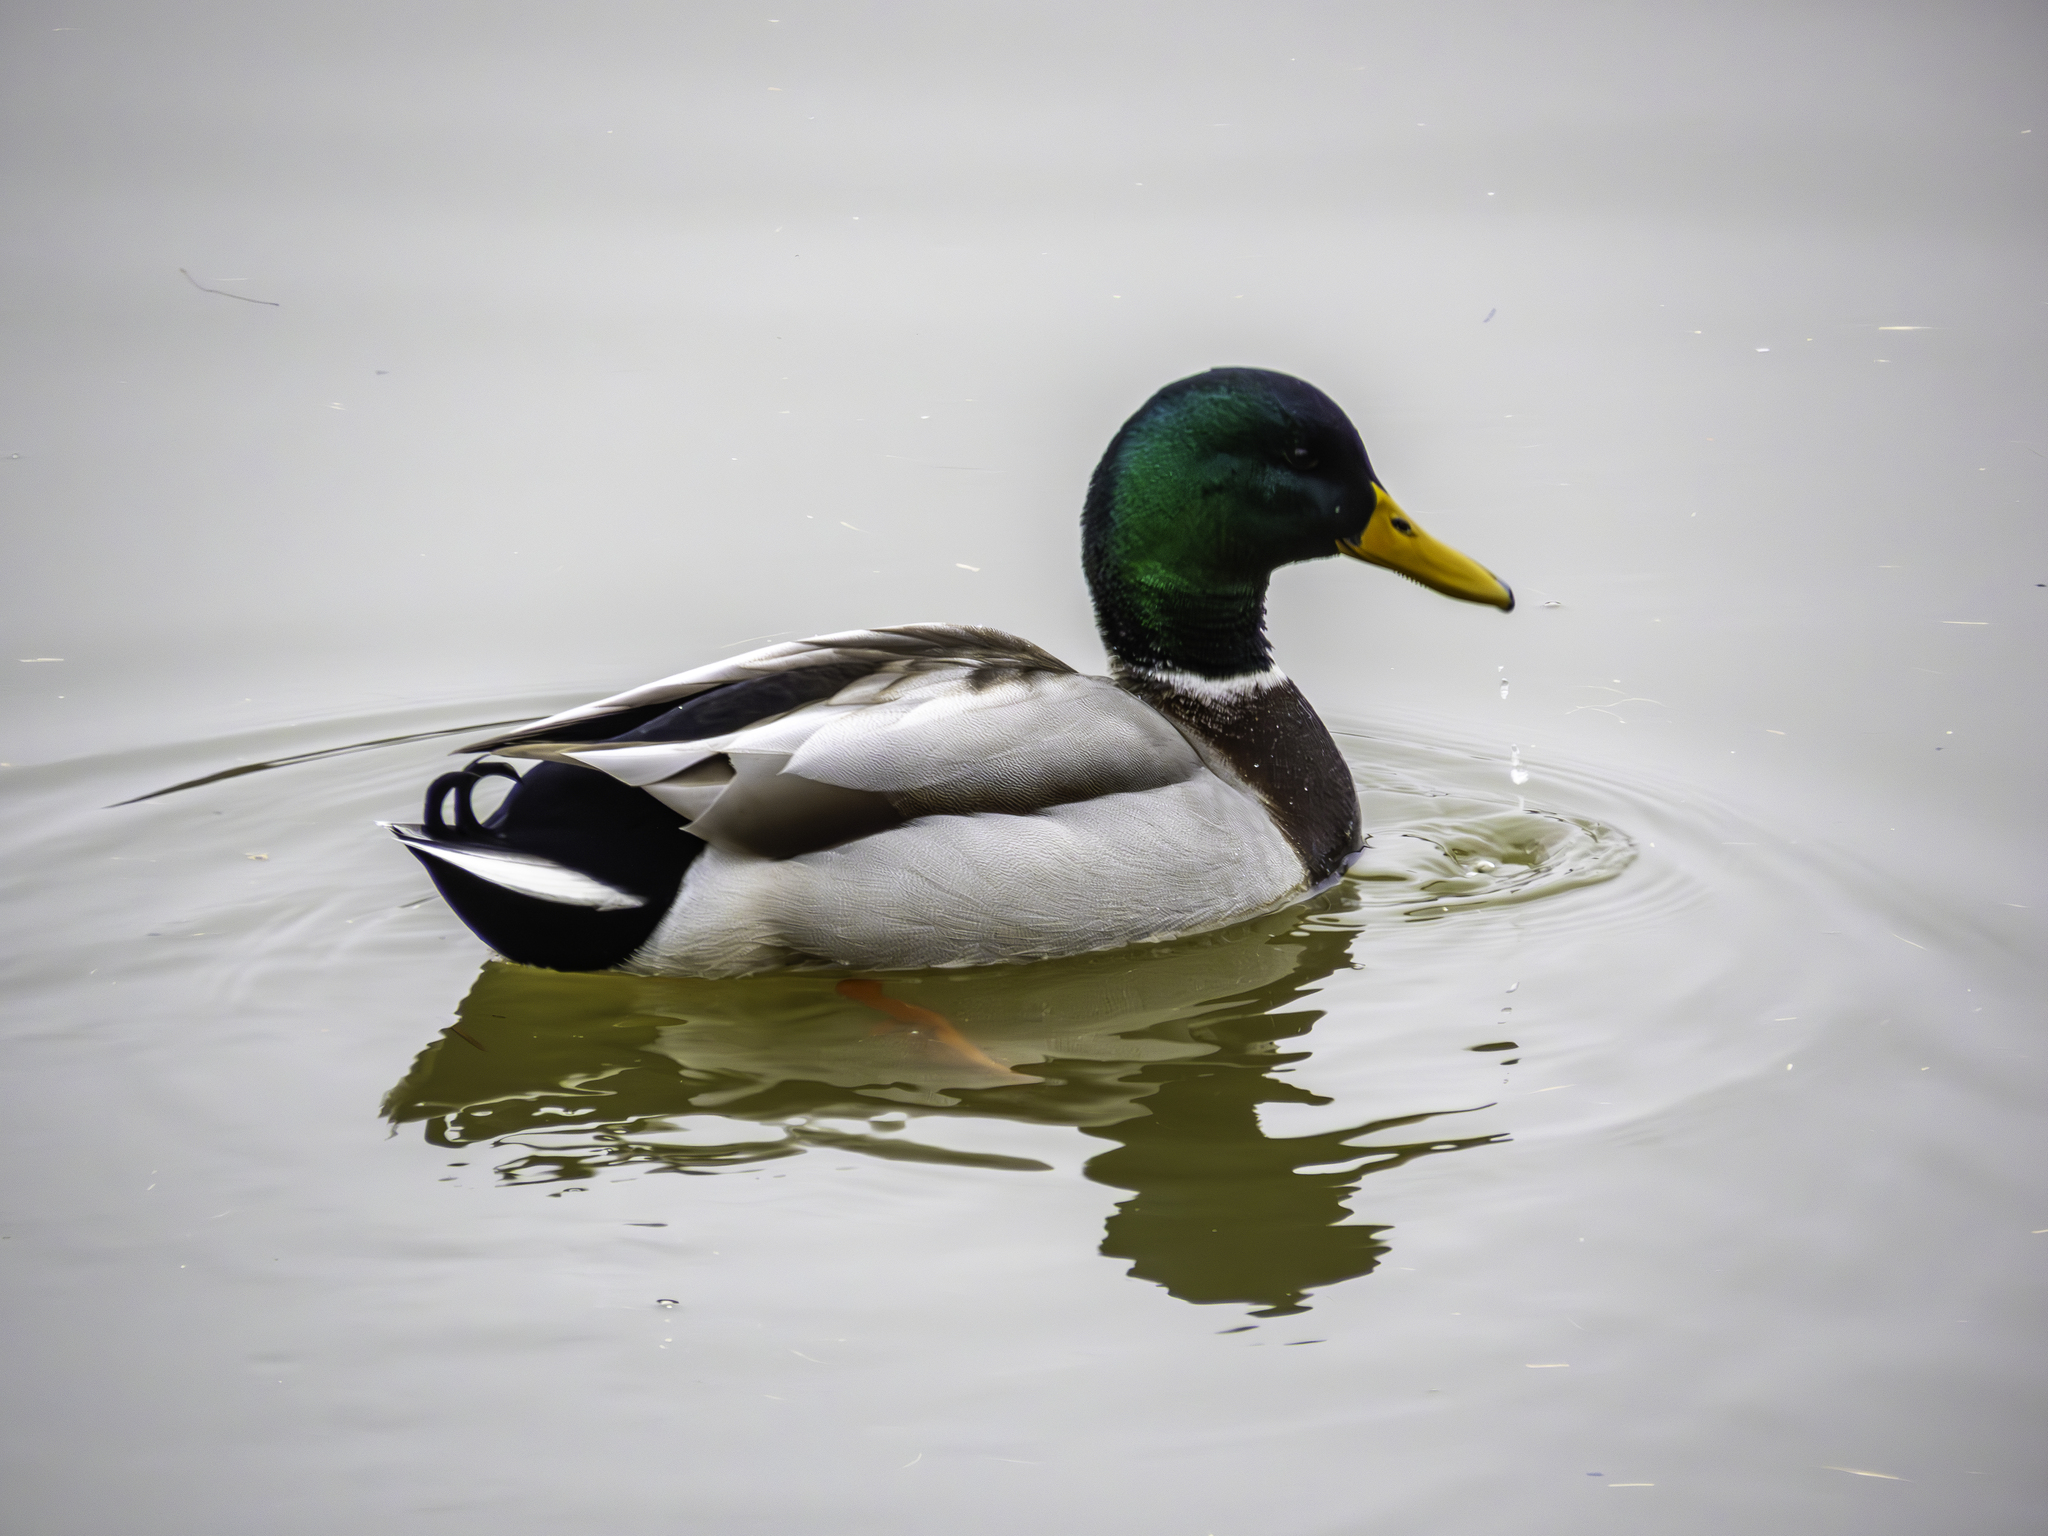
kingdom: Animalia
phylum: Chordata
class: Aves
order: Anseriformes
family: Anatidae
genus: Anas
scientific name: Anas platyrhynchos
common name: Mallard
